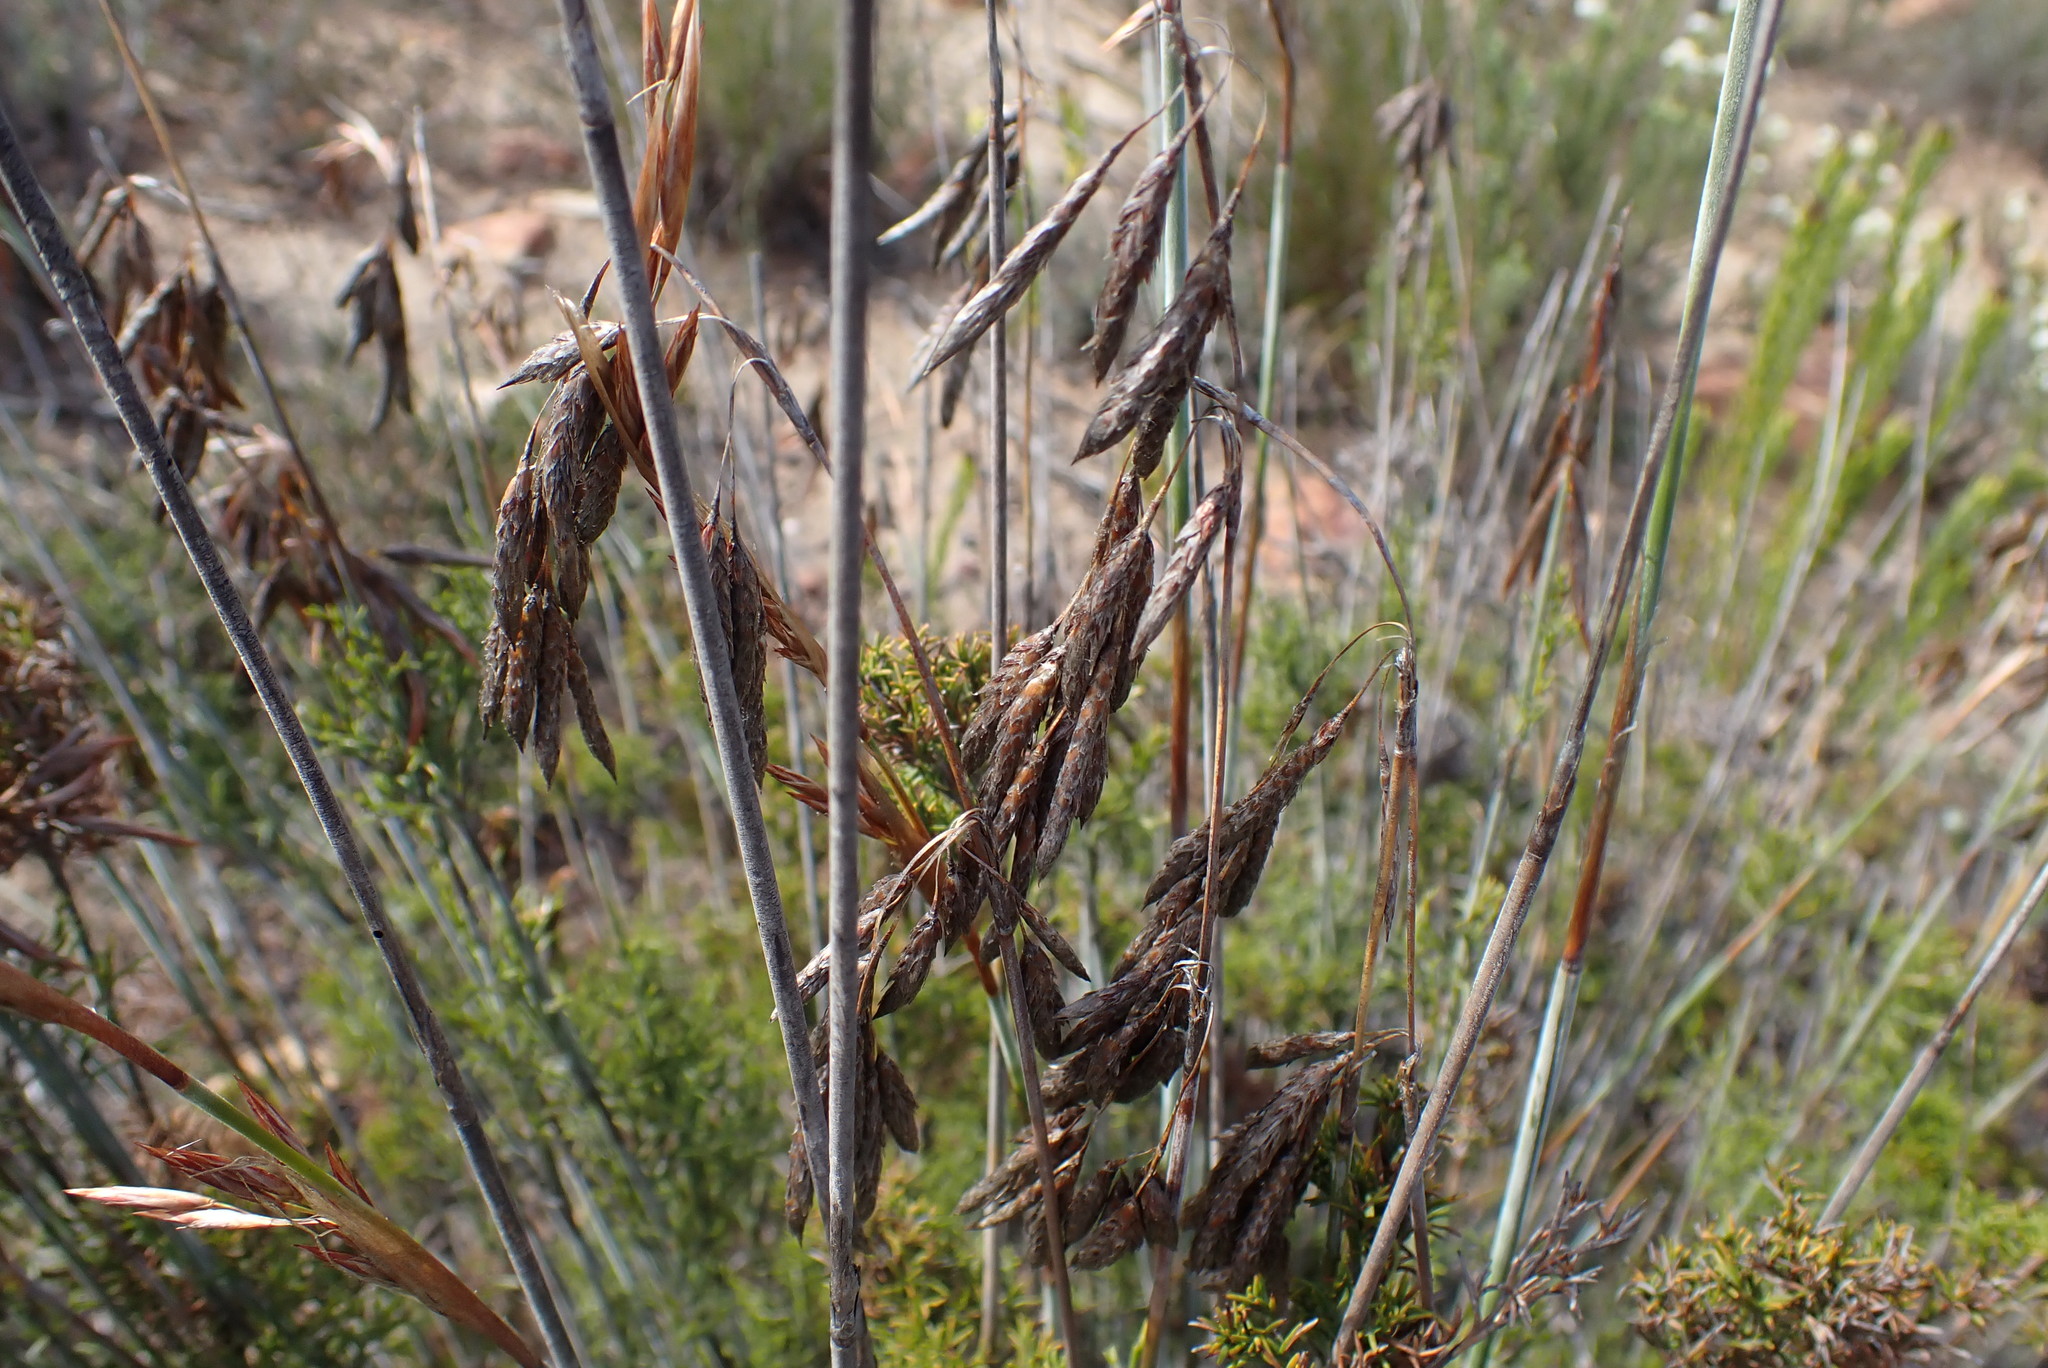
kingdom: Plantae
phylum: Tracheophyta
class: Liliopsida
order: Poales
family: Restionaceae
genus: Thamnochortus
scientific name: Thamnochortus rigidus
